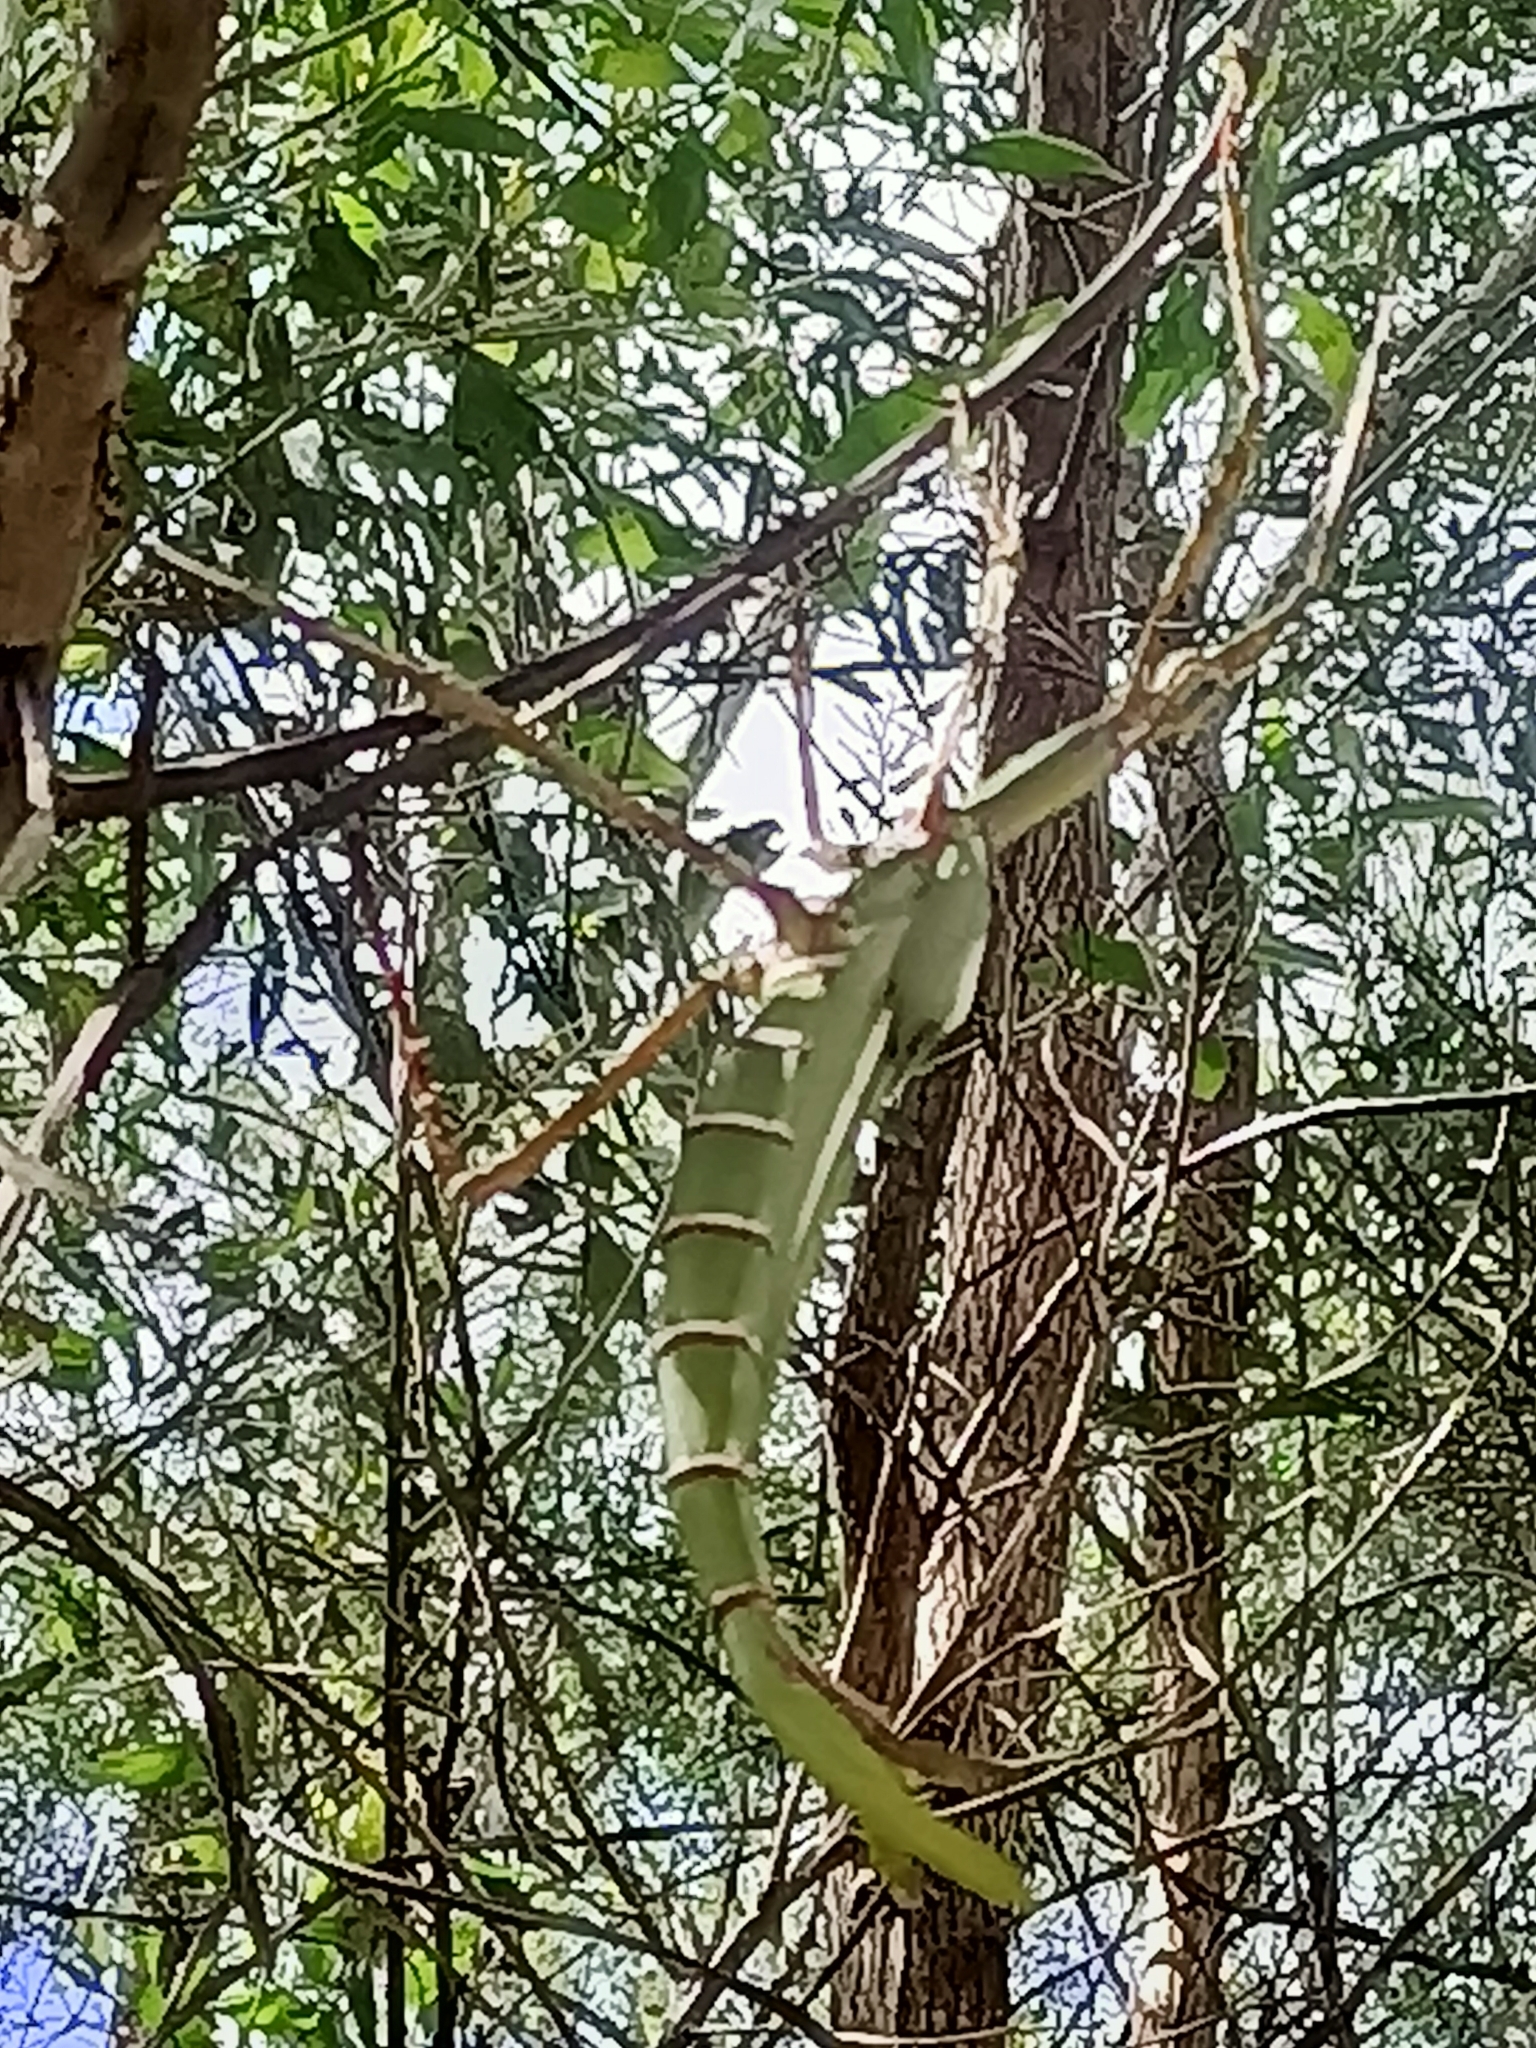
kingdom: Animalia
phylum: Arthropoda
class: Insecta
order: Phasmida
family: Phasmatidae
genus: Eurycnema
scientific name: Eurycnema goliath
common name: Goliath stick insect
